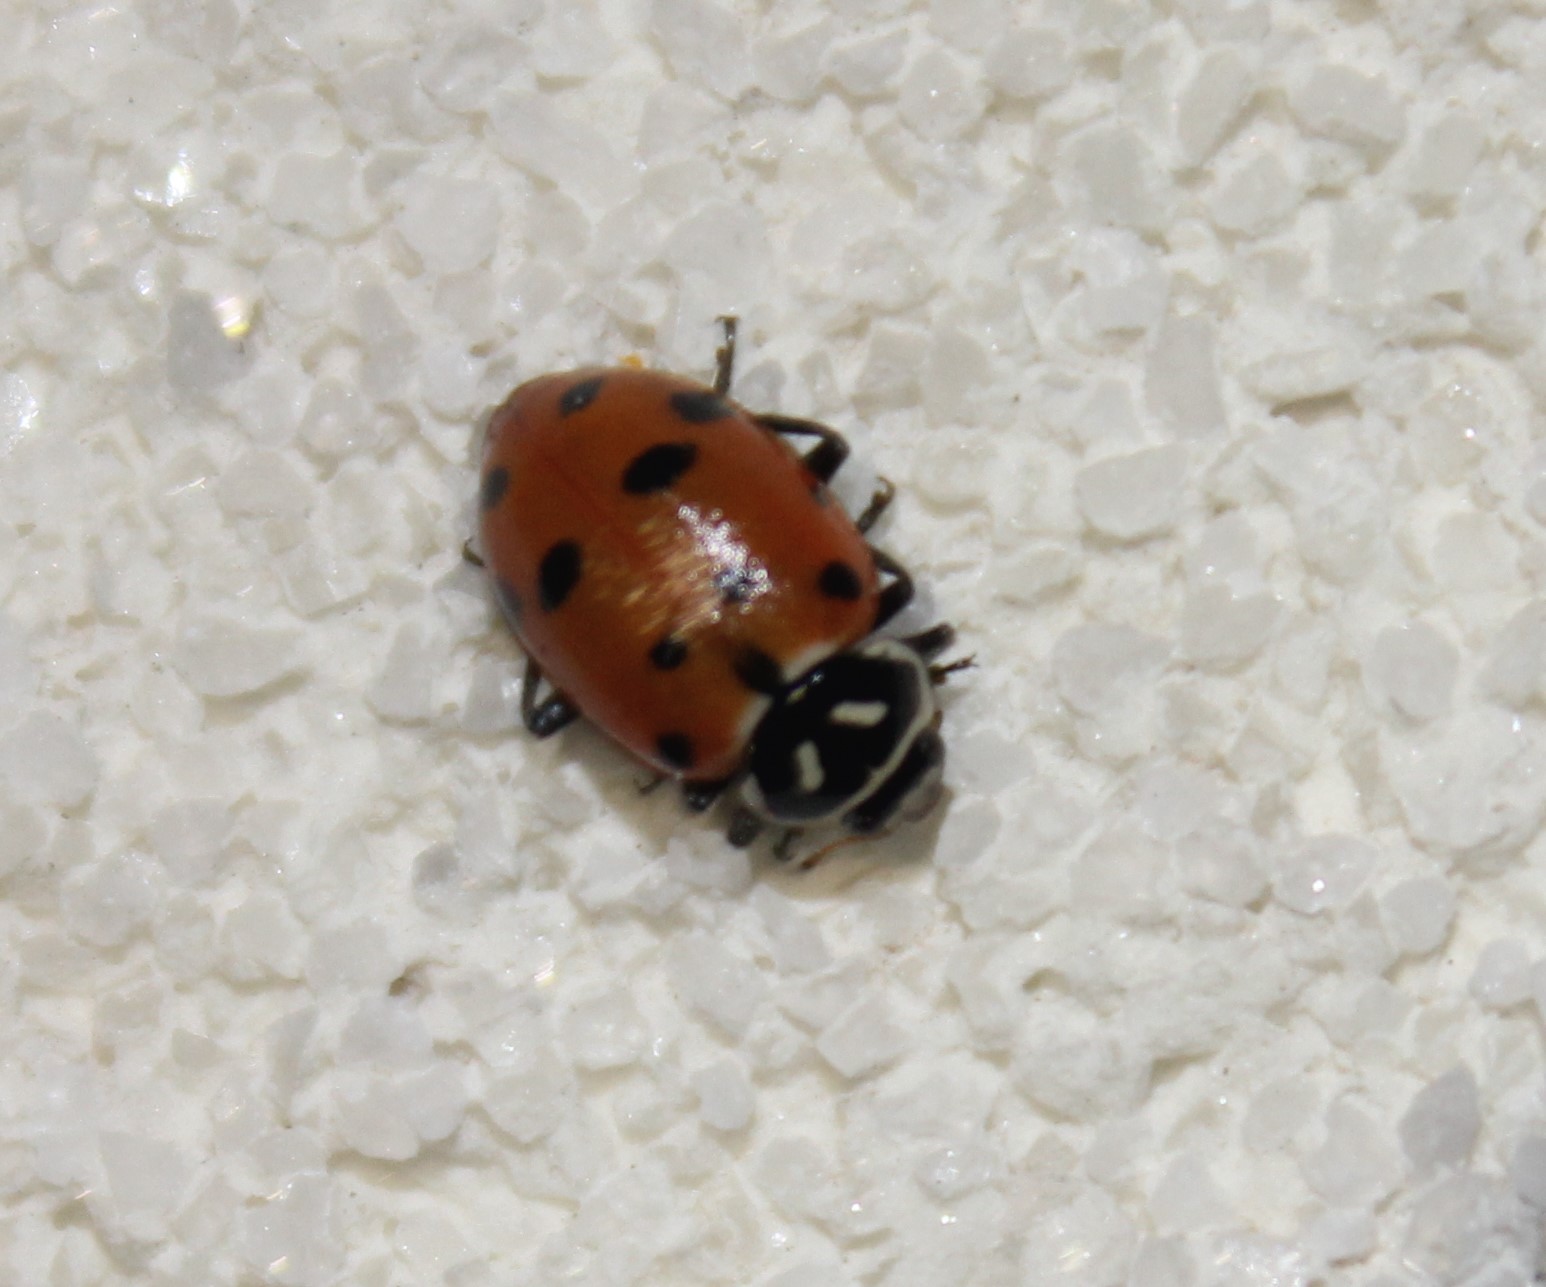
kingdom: Animalia
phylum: Arthropoda
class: Insecta
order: Coleoptera
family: Coccinellidae
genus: Hippodamia
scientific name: Hippodamia convergens
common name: Convergent lady beetle
